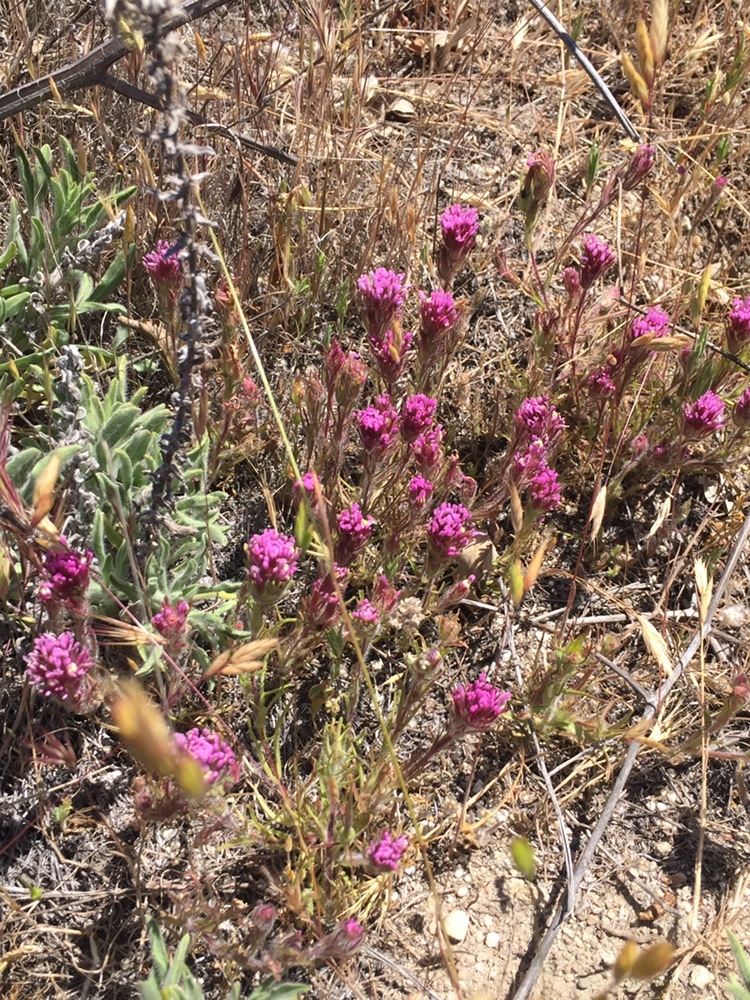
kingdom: Plantae
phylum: Tracheophyta
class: Magnoliopsida
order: Lamiales
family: Orobanchaceae
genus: Castilleja
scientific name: Castilleja exserta
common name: Purple owl-clover
